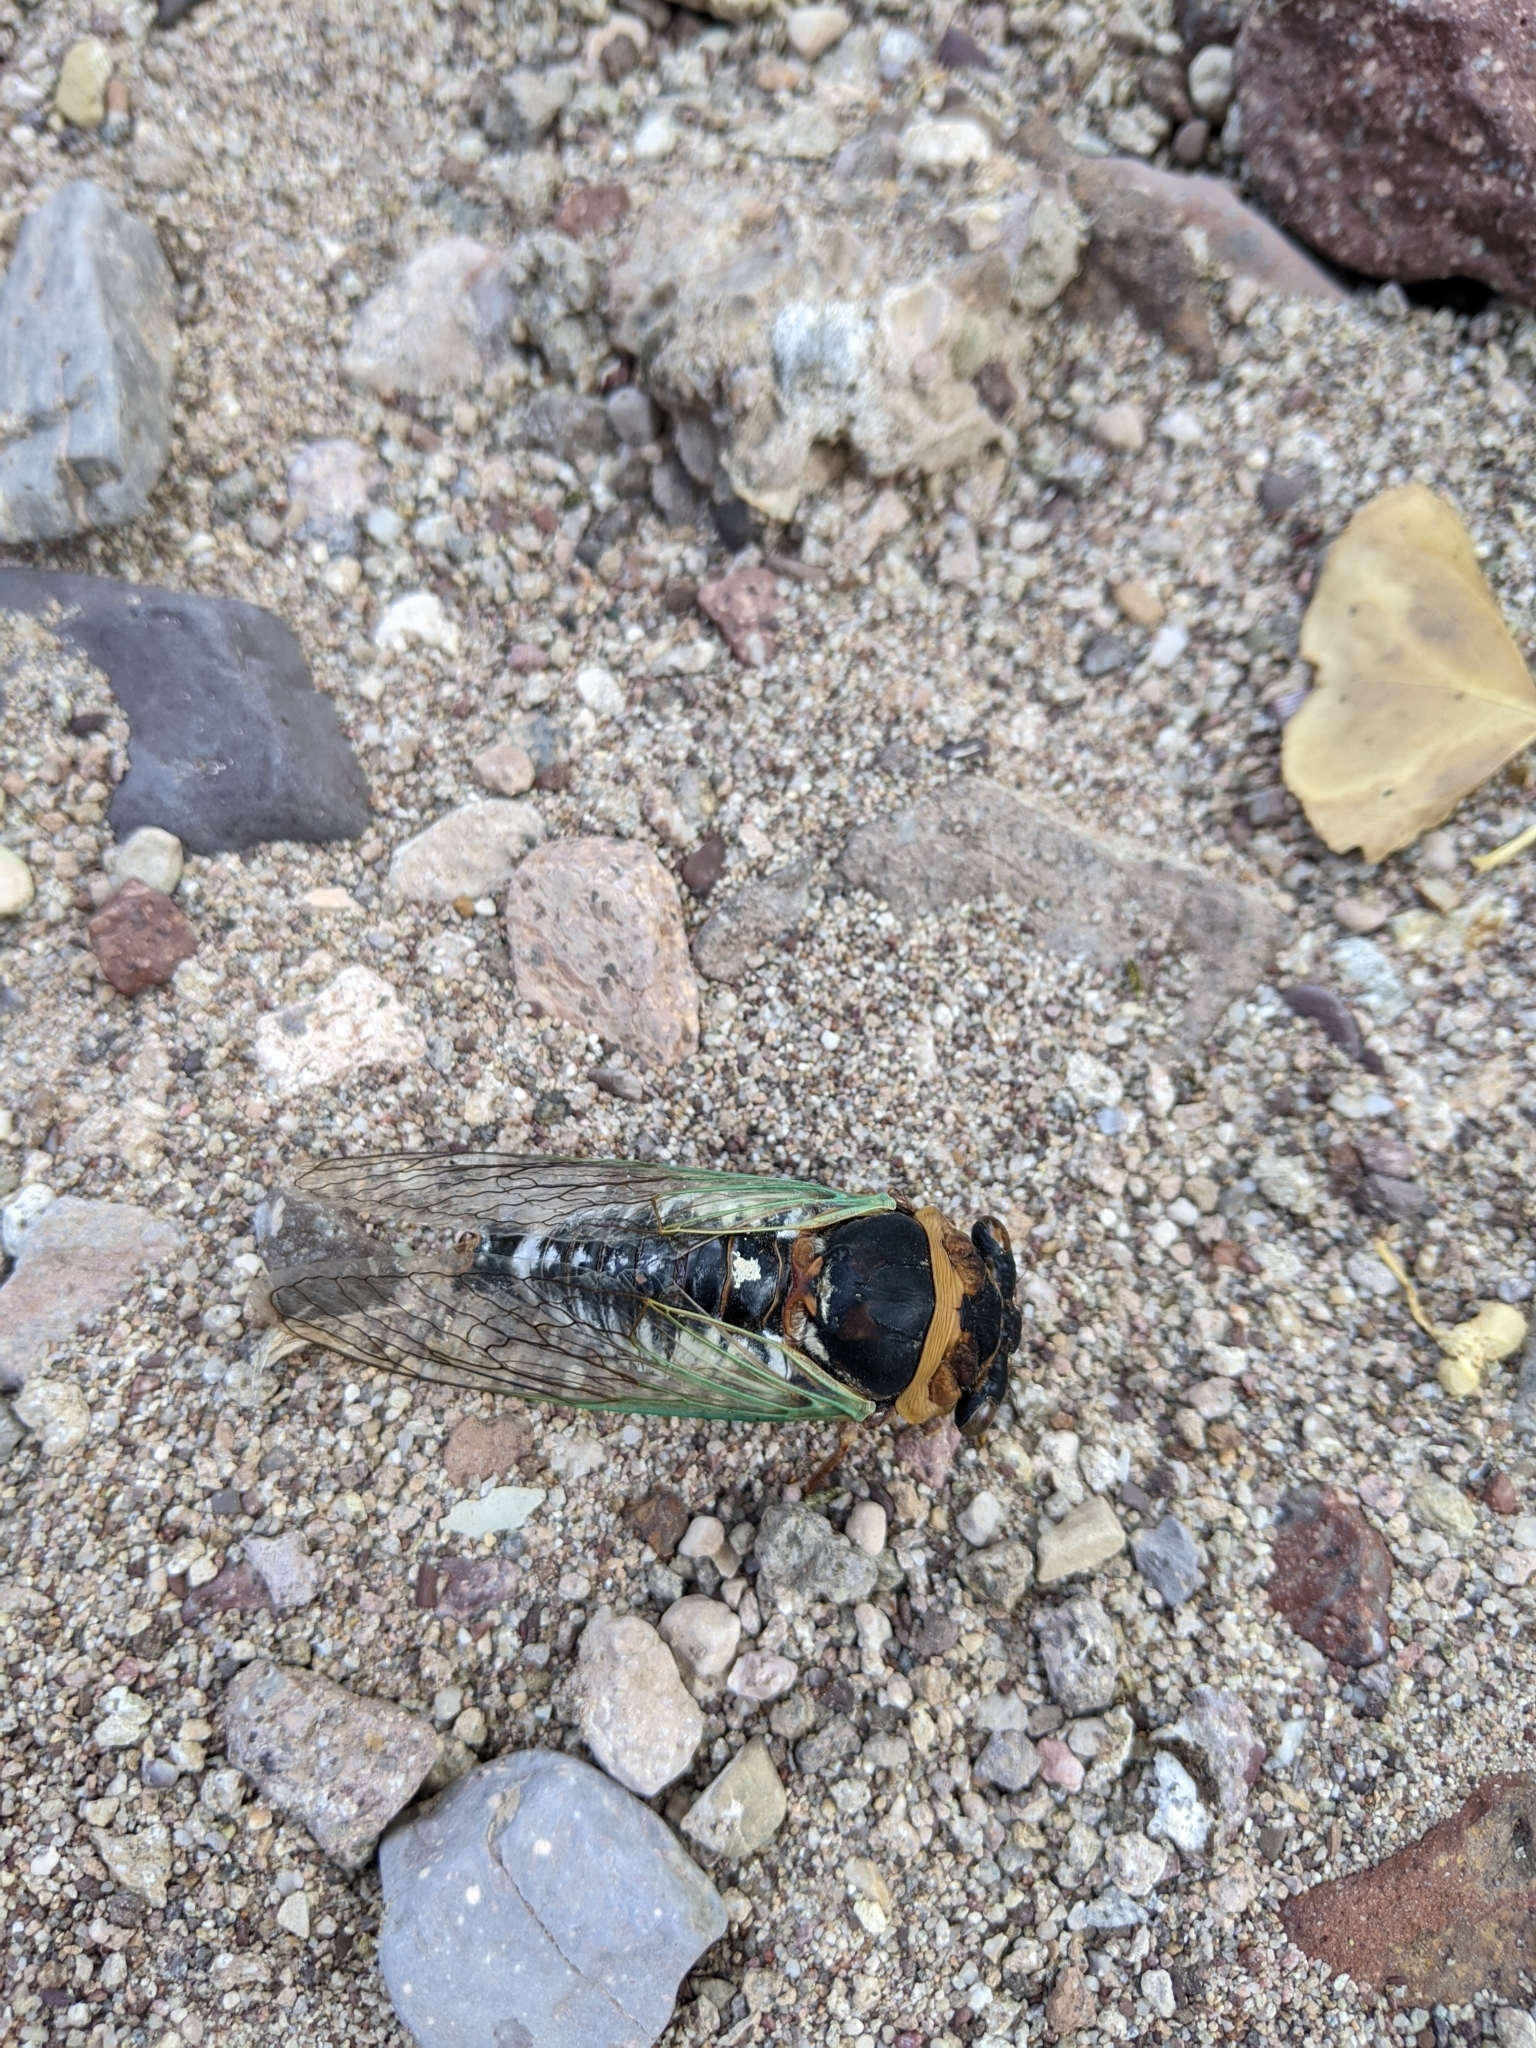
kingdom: Animalia
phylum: Arthropoda
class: Insecta
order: Hemiptera
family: Cicadidae
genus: Megatibicen
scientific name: Megatibicen cultriformis
